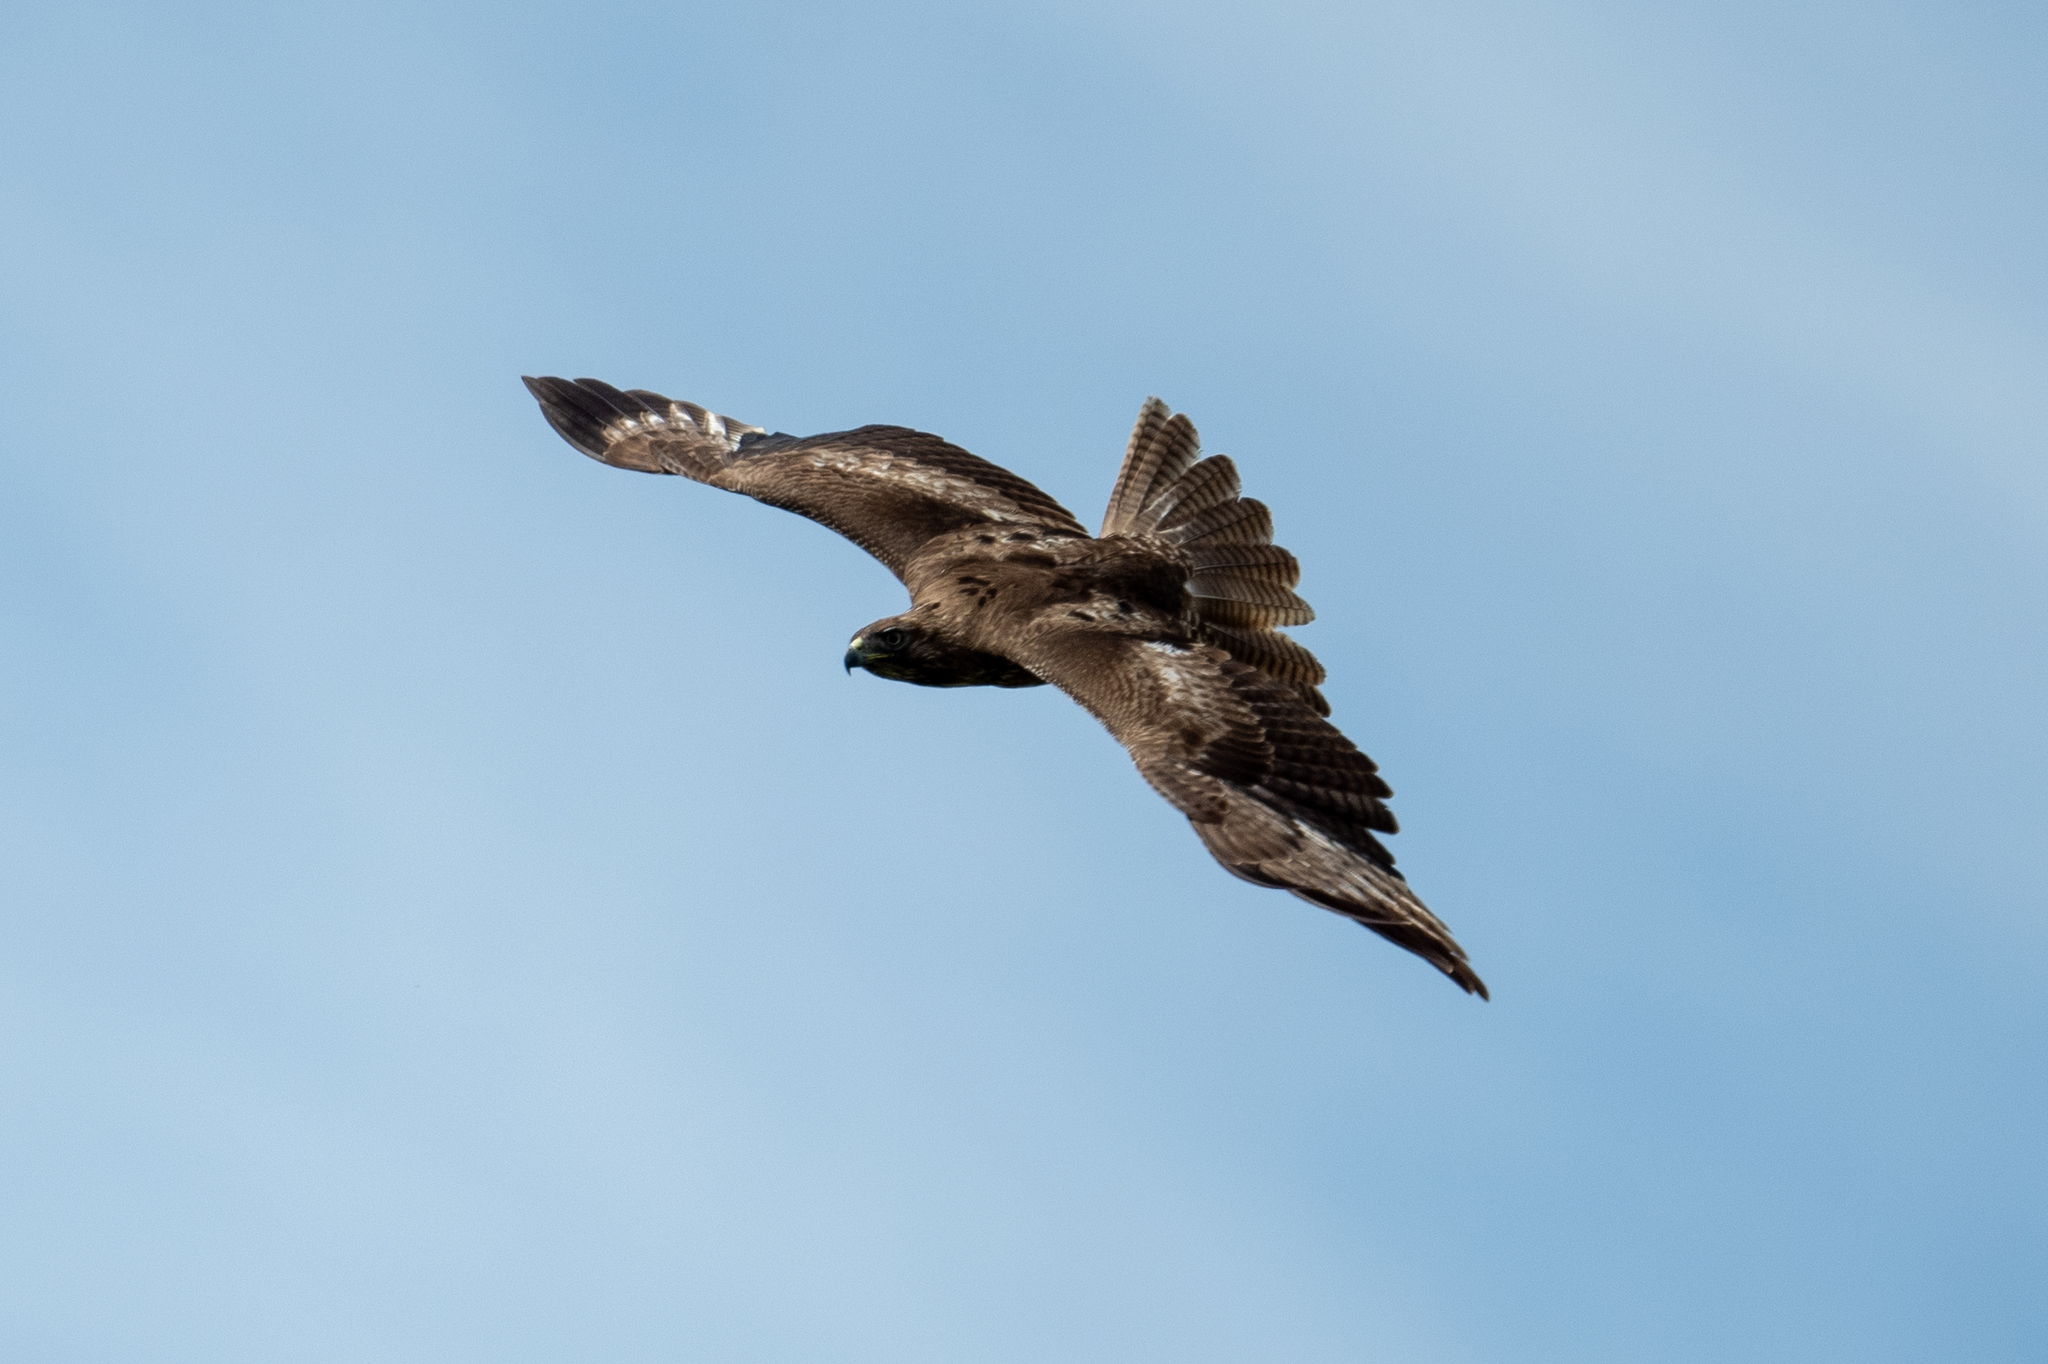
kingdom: Animalia
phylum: Chordata
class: Aves
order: Accipitriformes
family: Accipitridae
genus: Buteo
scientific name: Buteo jamaicensis
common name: Red-tailed hawk
